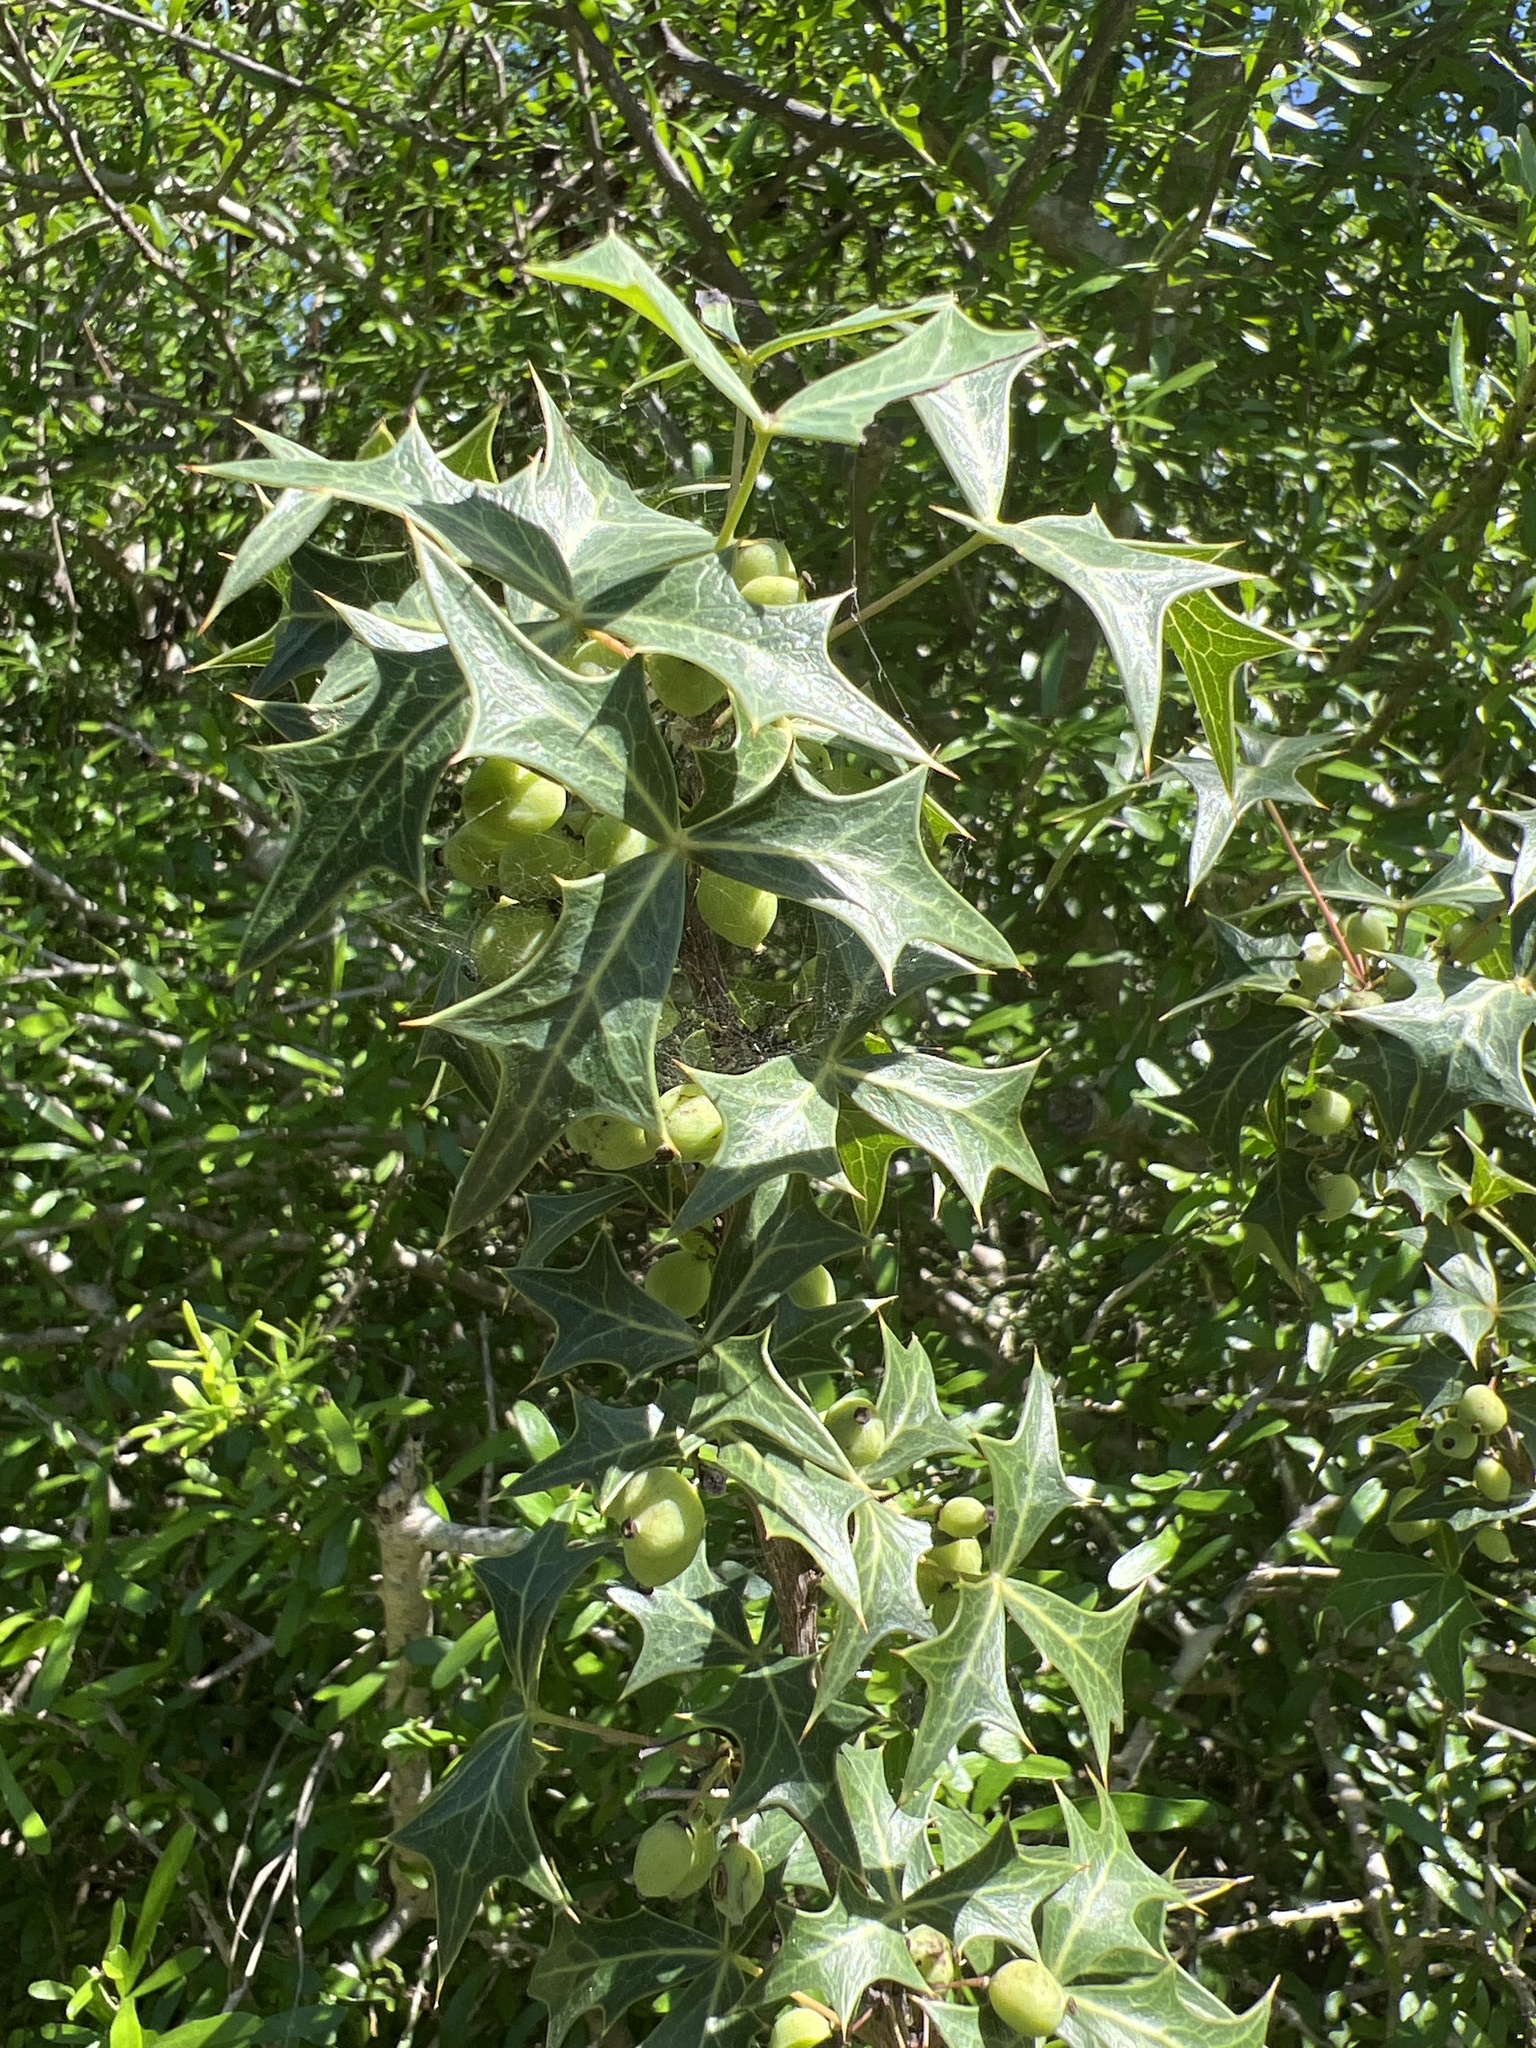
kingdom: Plantae
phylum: Tracheophyta
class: Magnoliopsida
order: Ranunculales
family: Berberidaceae
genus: Alloberberis
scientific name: Alloberberis trifoliolata
